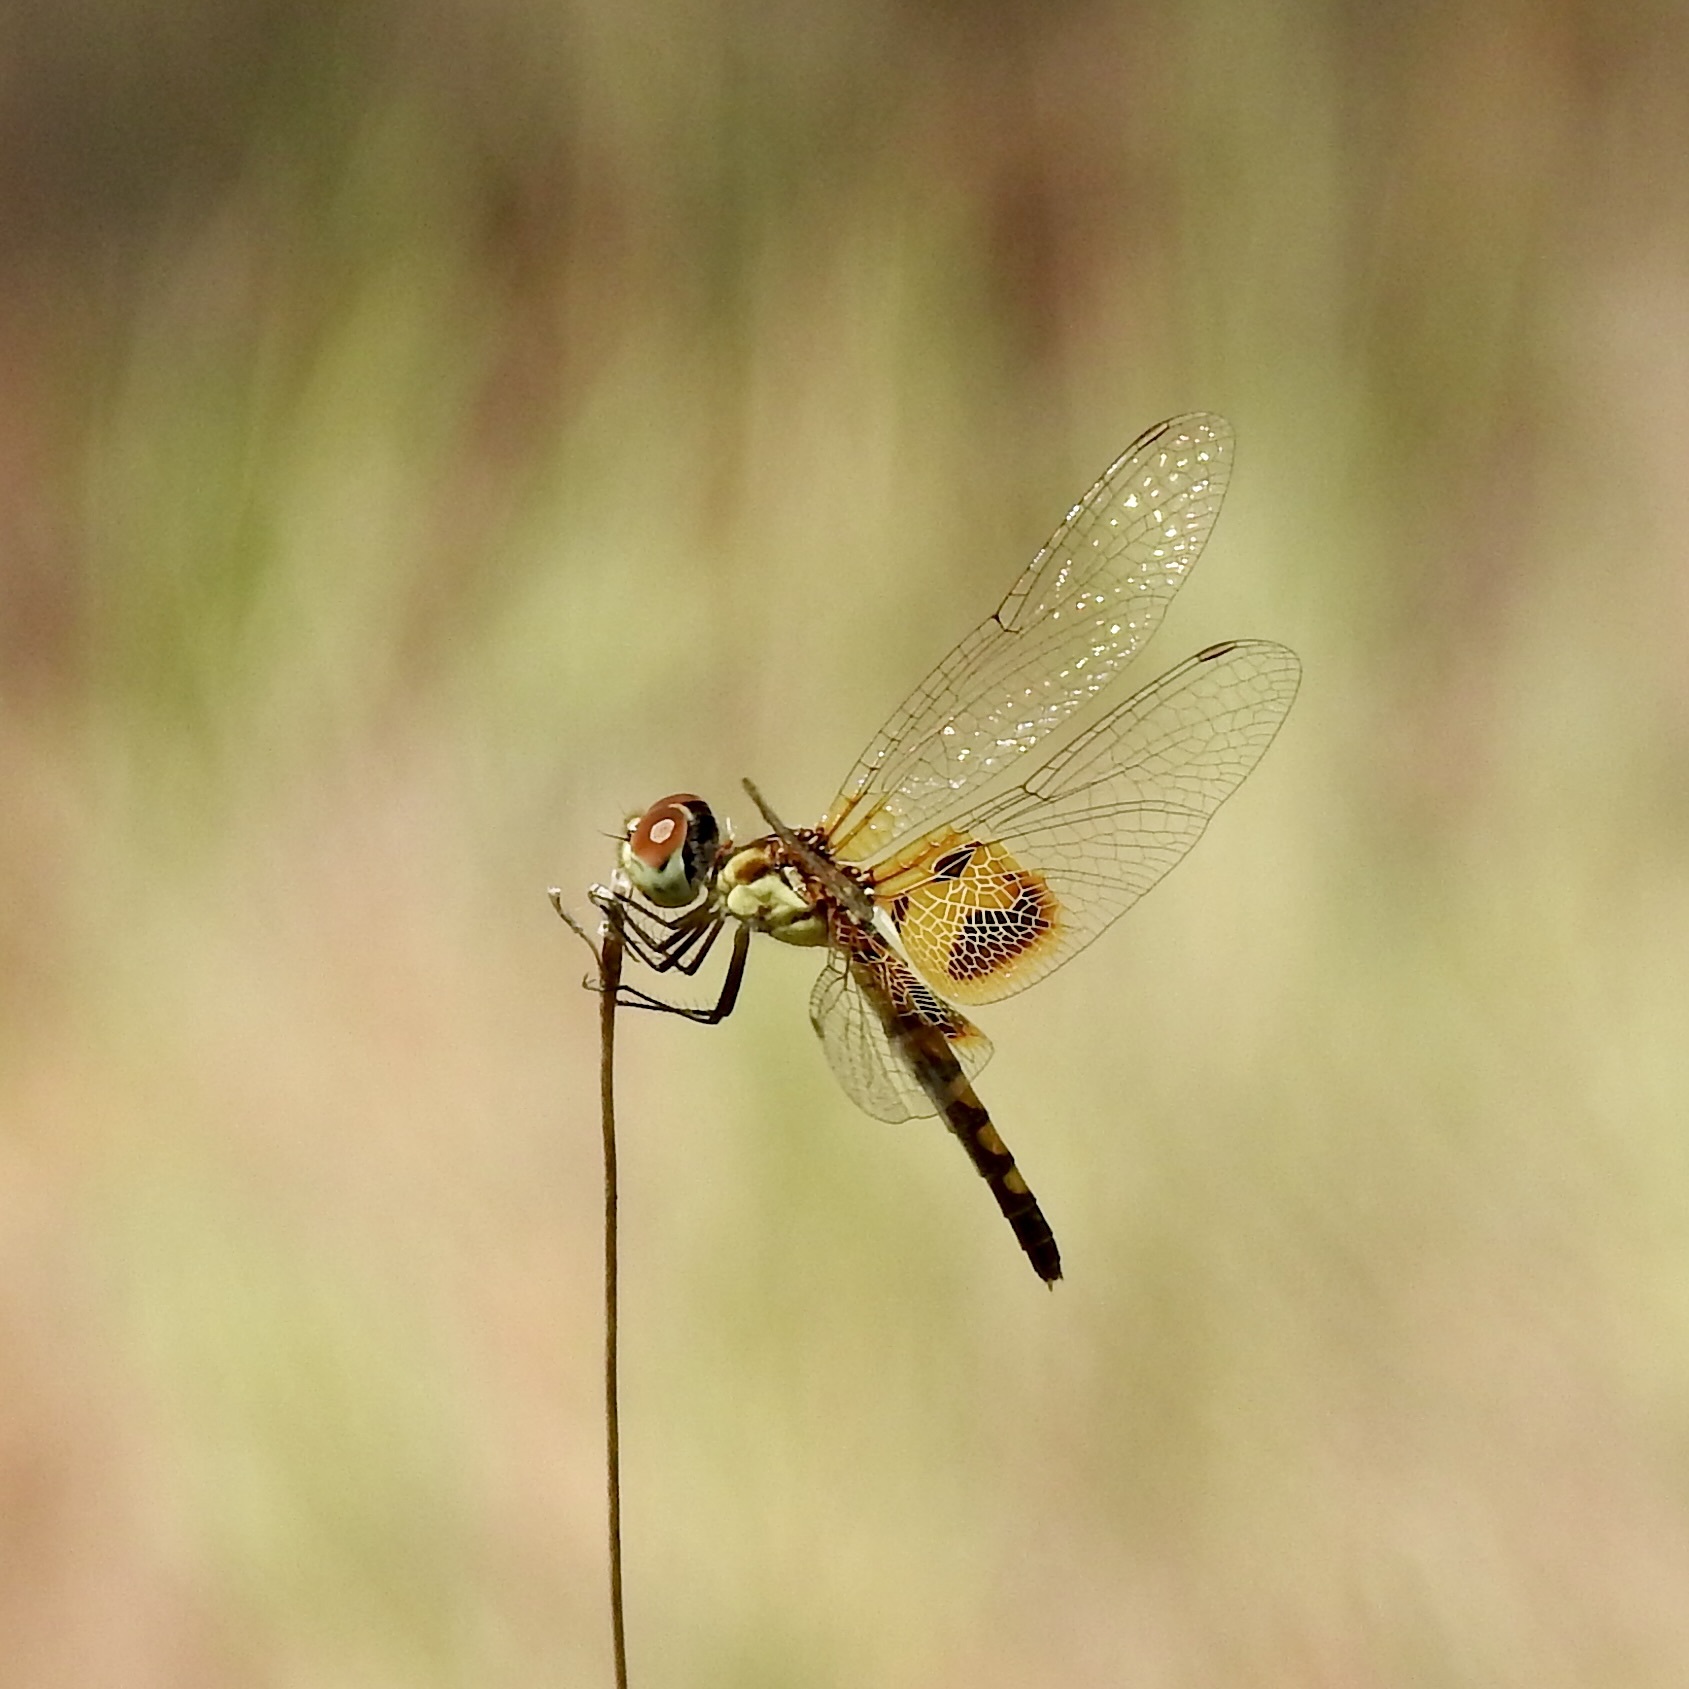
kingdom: Animalia
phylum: Arthropoda
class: Insecta
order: Odonata
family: Libellulidae
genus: Celithemis
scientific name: Celithemis amanda
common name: Amanda's pennant
